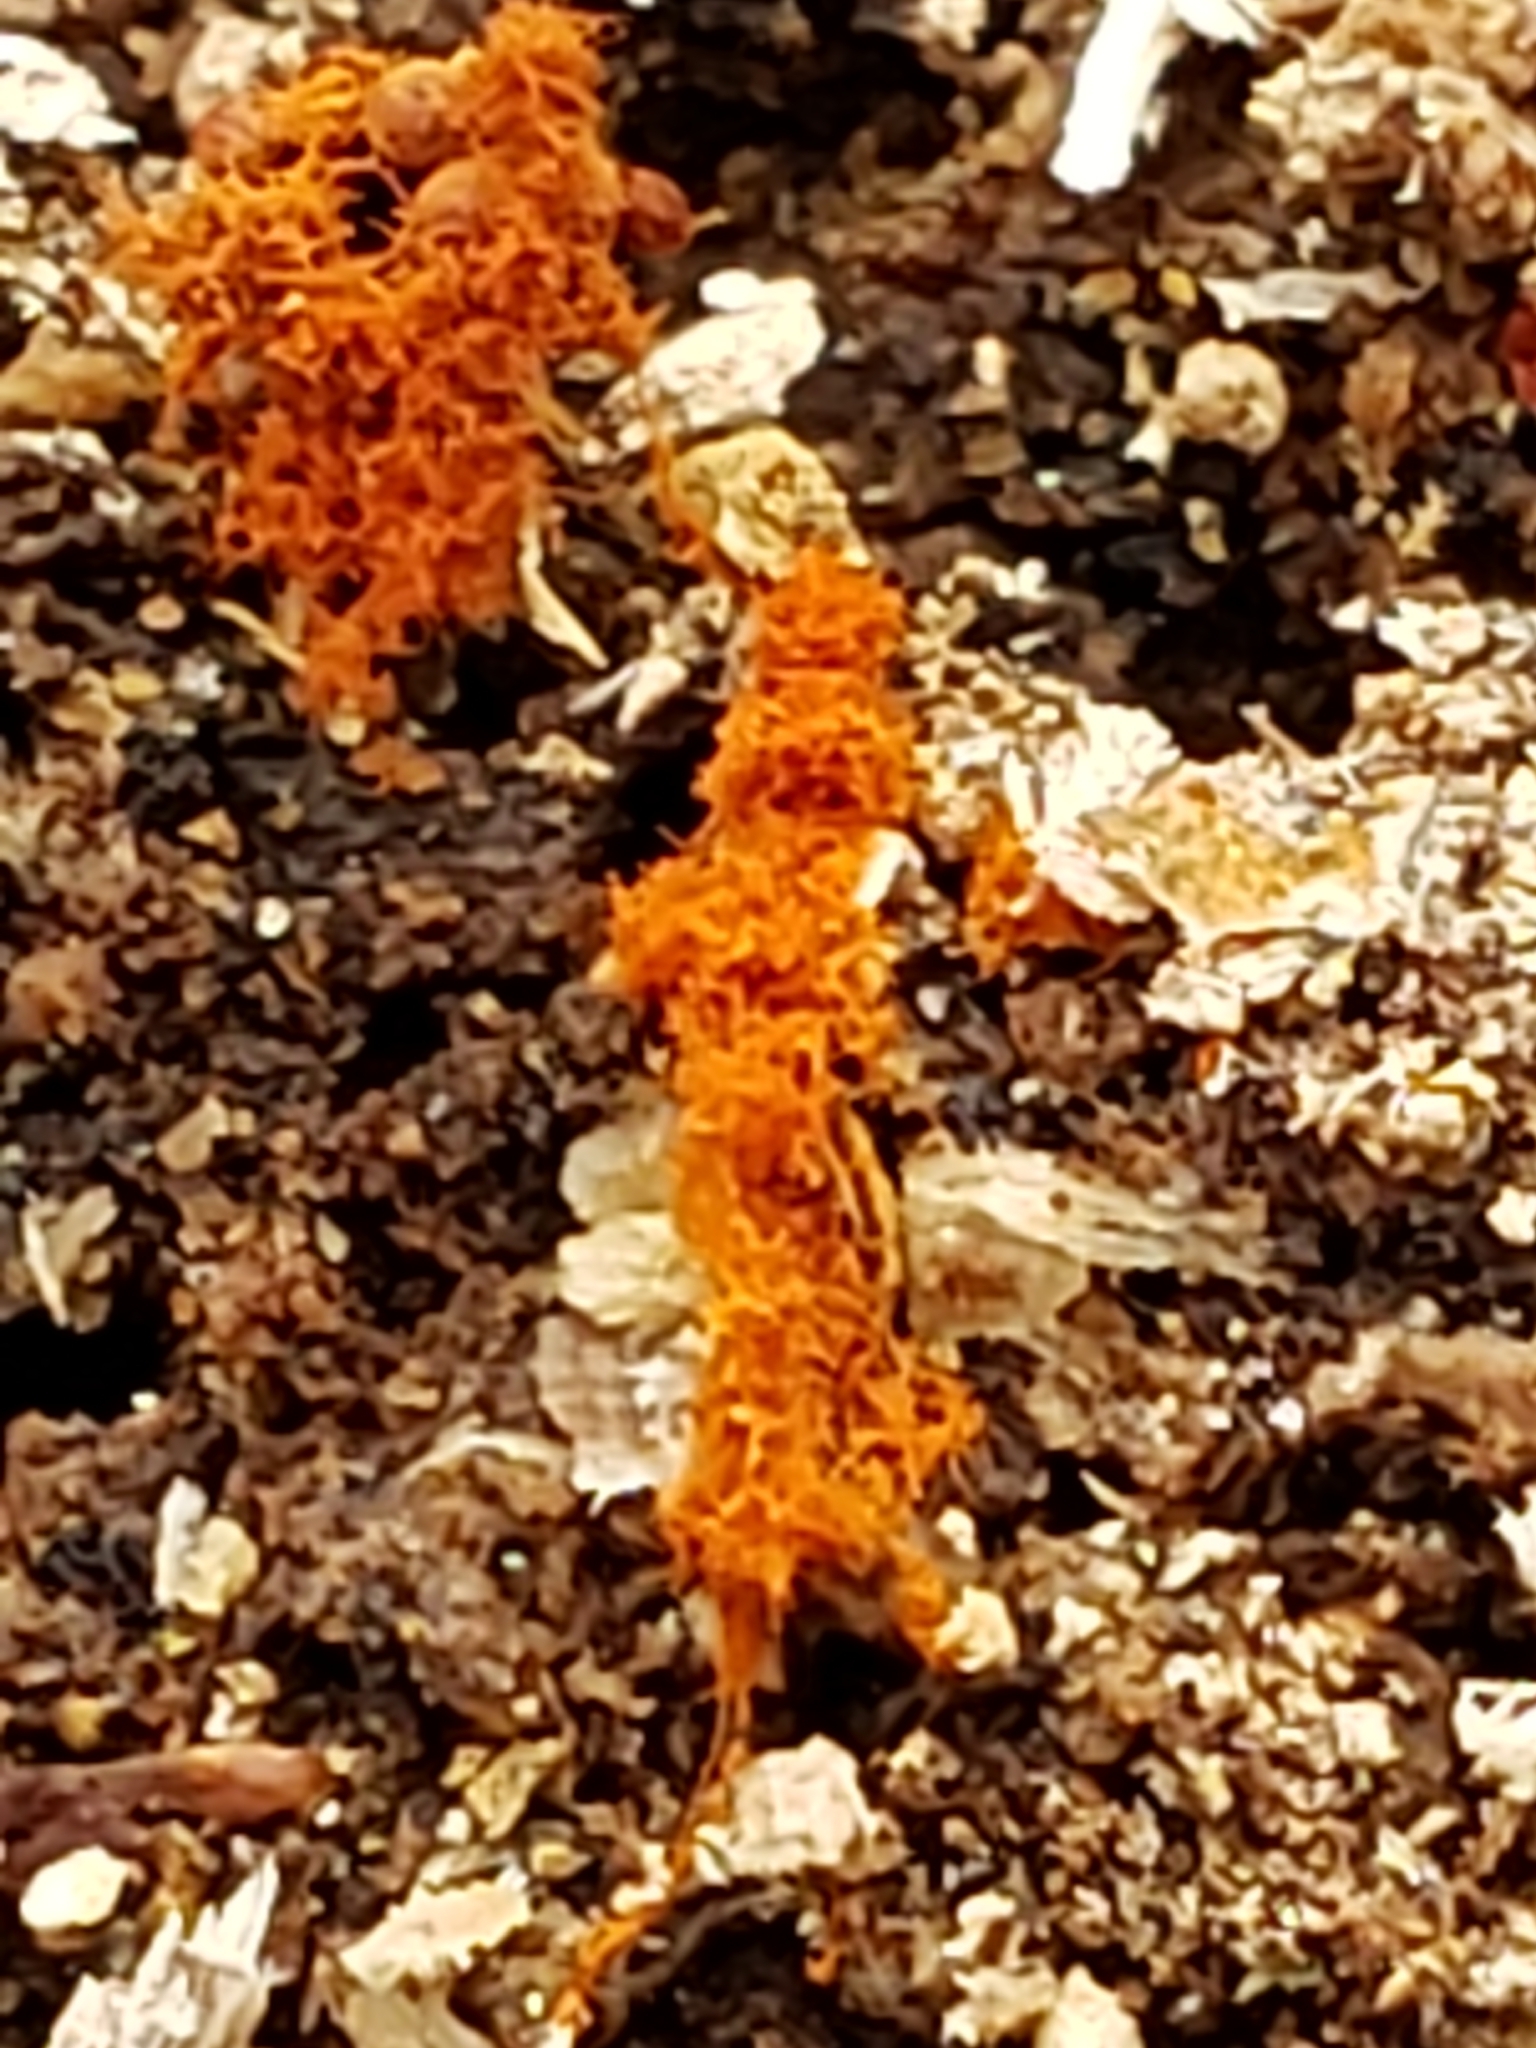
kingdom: Protozoa
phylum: Mycetozoa
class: Myxomycetes
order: Trichiales
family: Trichiaceae
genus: Metatrichia
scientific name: Metatrichia vesparia
